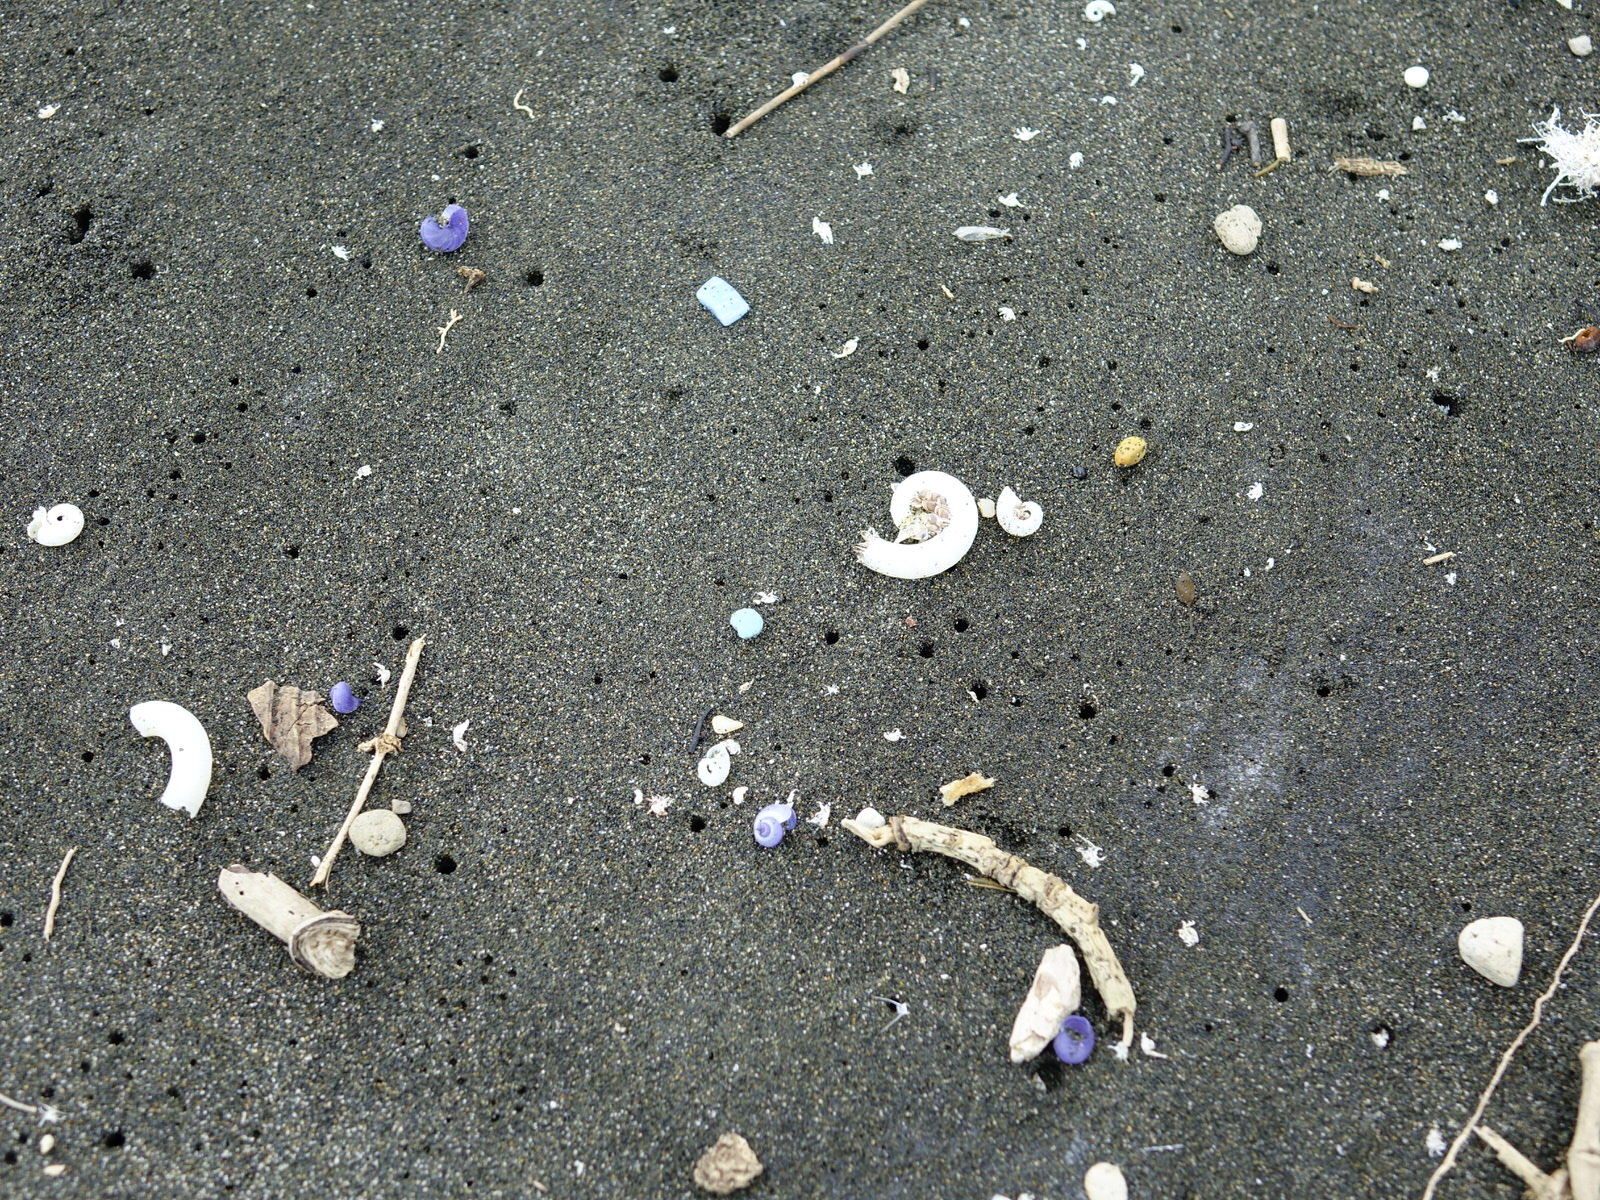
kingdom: Animalia
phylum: Mollusca
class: Gastropoda
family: Epitoniidae
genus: Janthina
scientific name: Janthina janthina
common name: Common janthina
